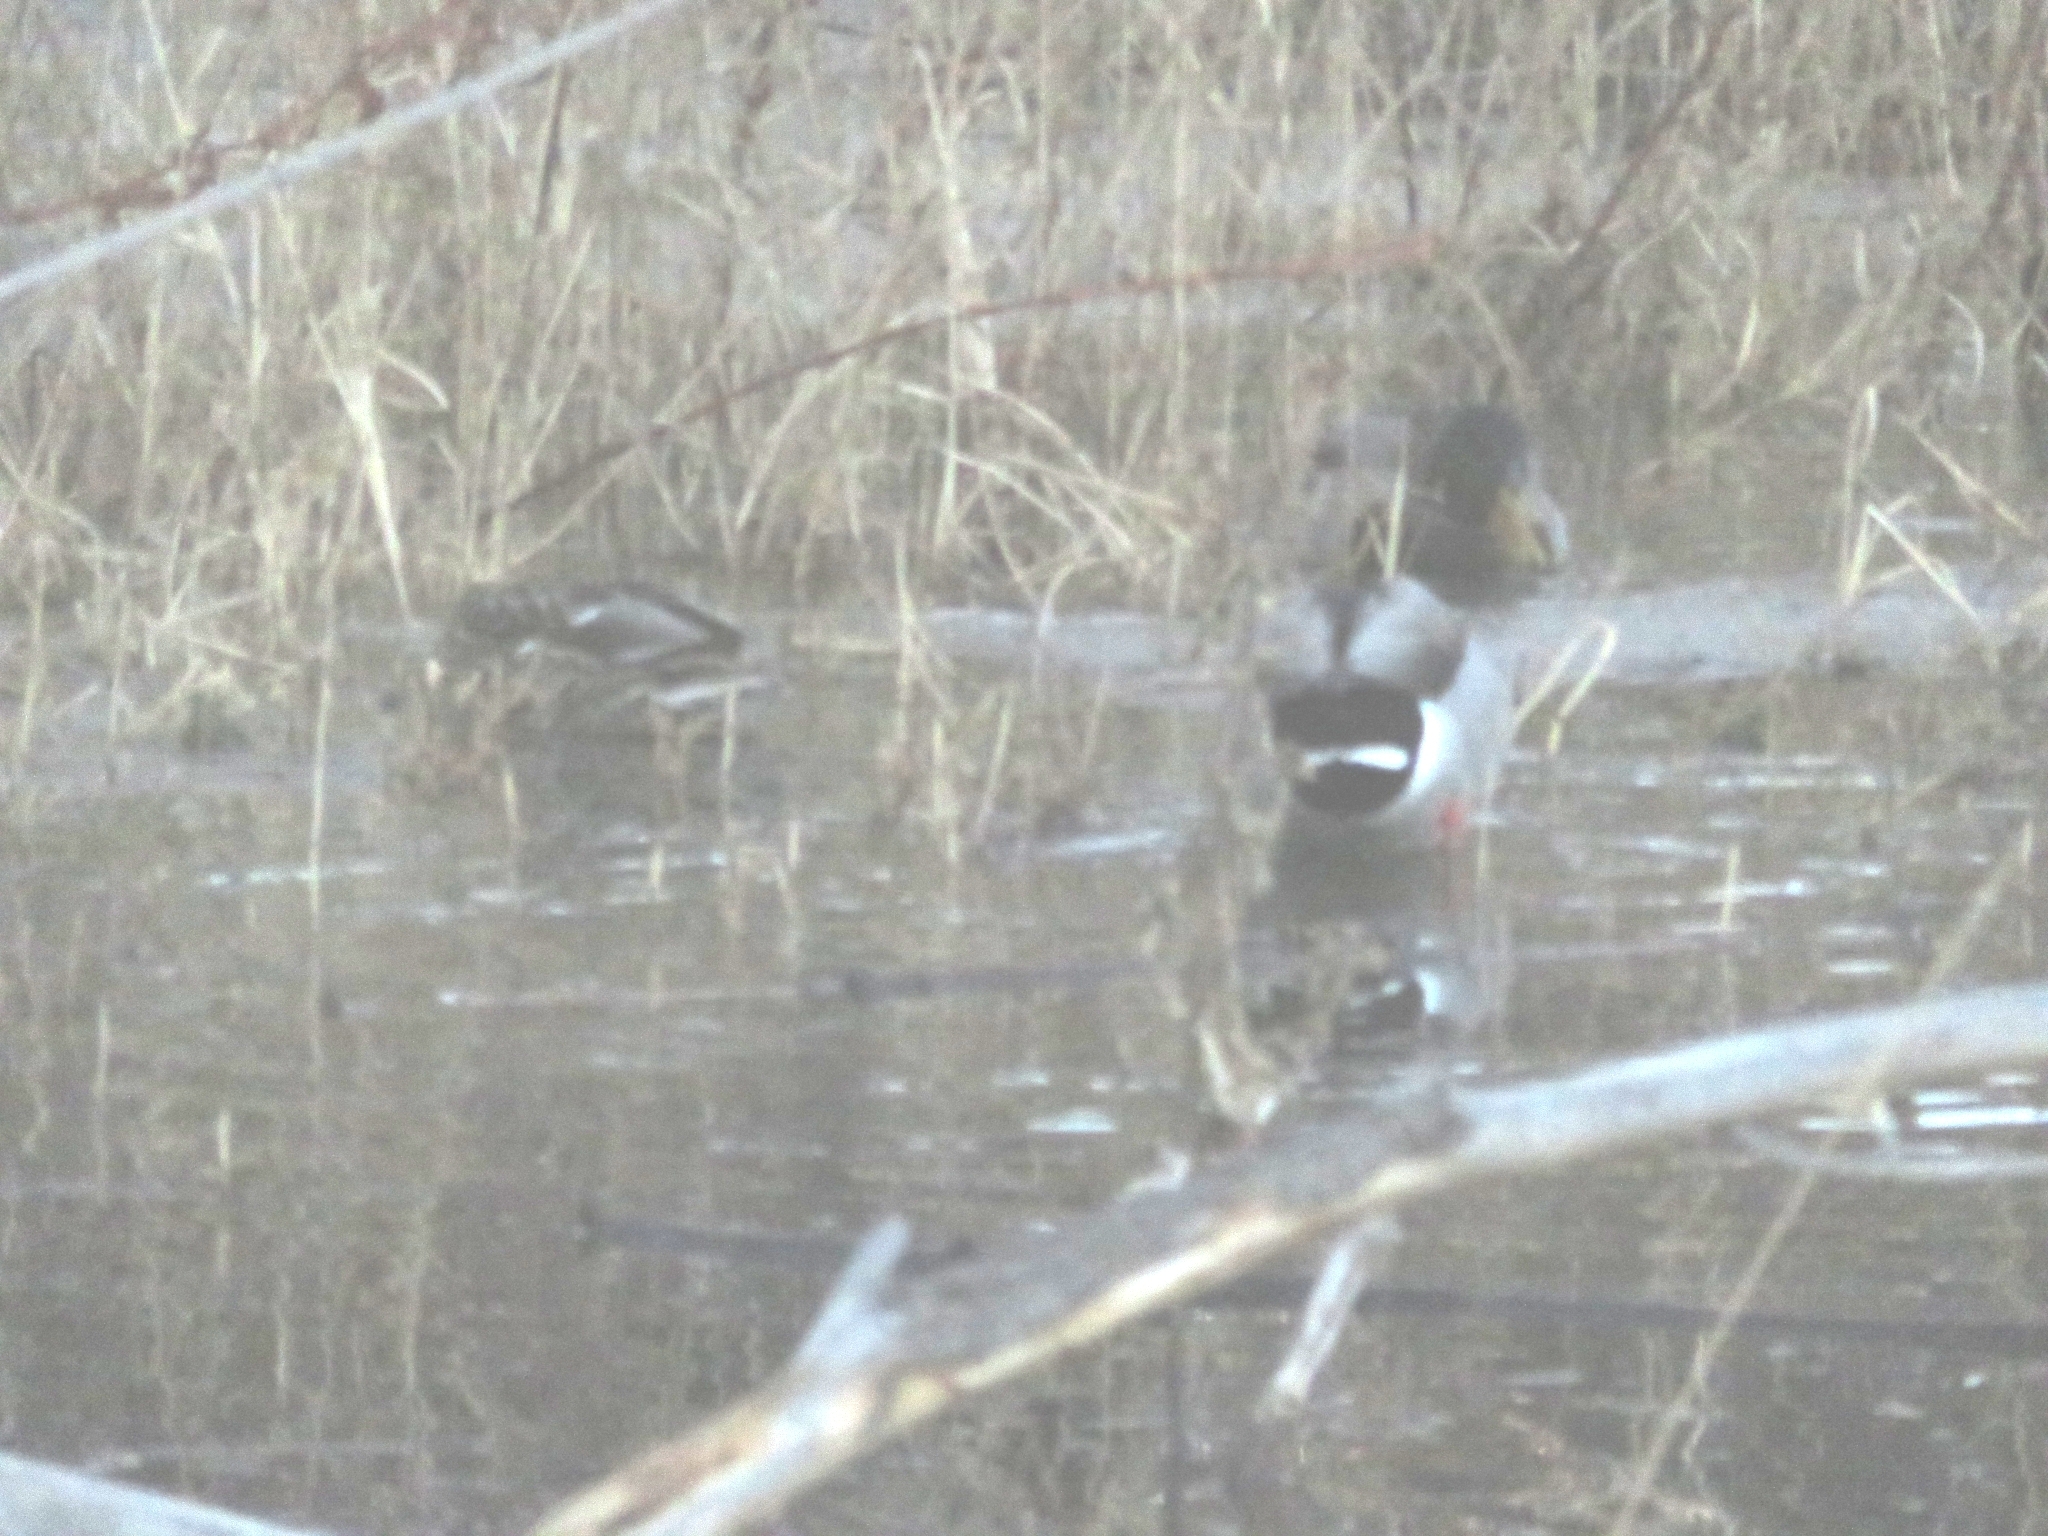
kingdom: Animalia
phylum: Chordata
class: Aves
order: Anseriformes
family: Anatidae
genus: Anas
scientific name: Anas platyrhynchos
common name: Mallard
